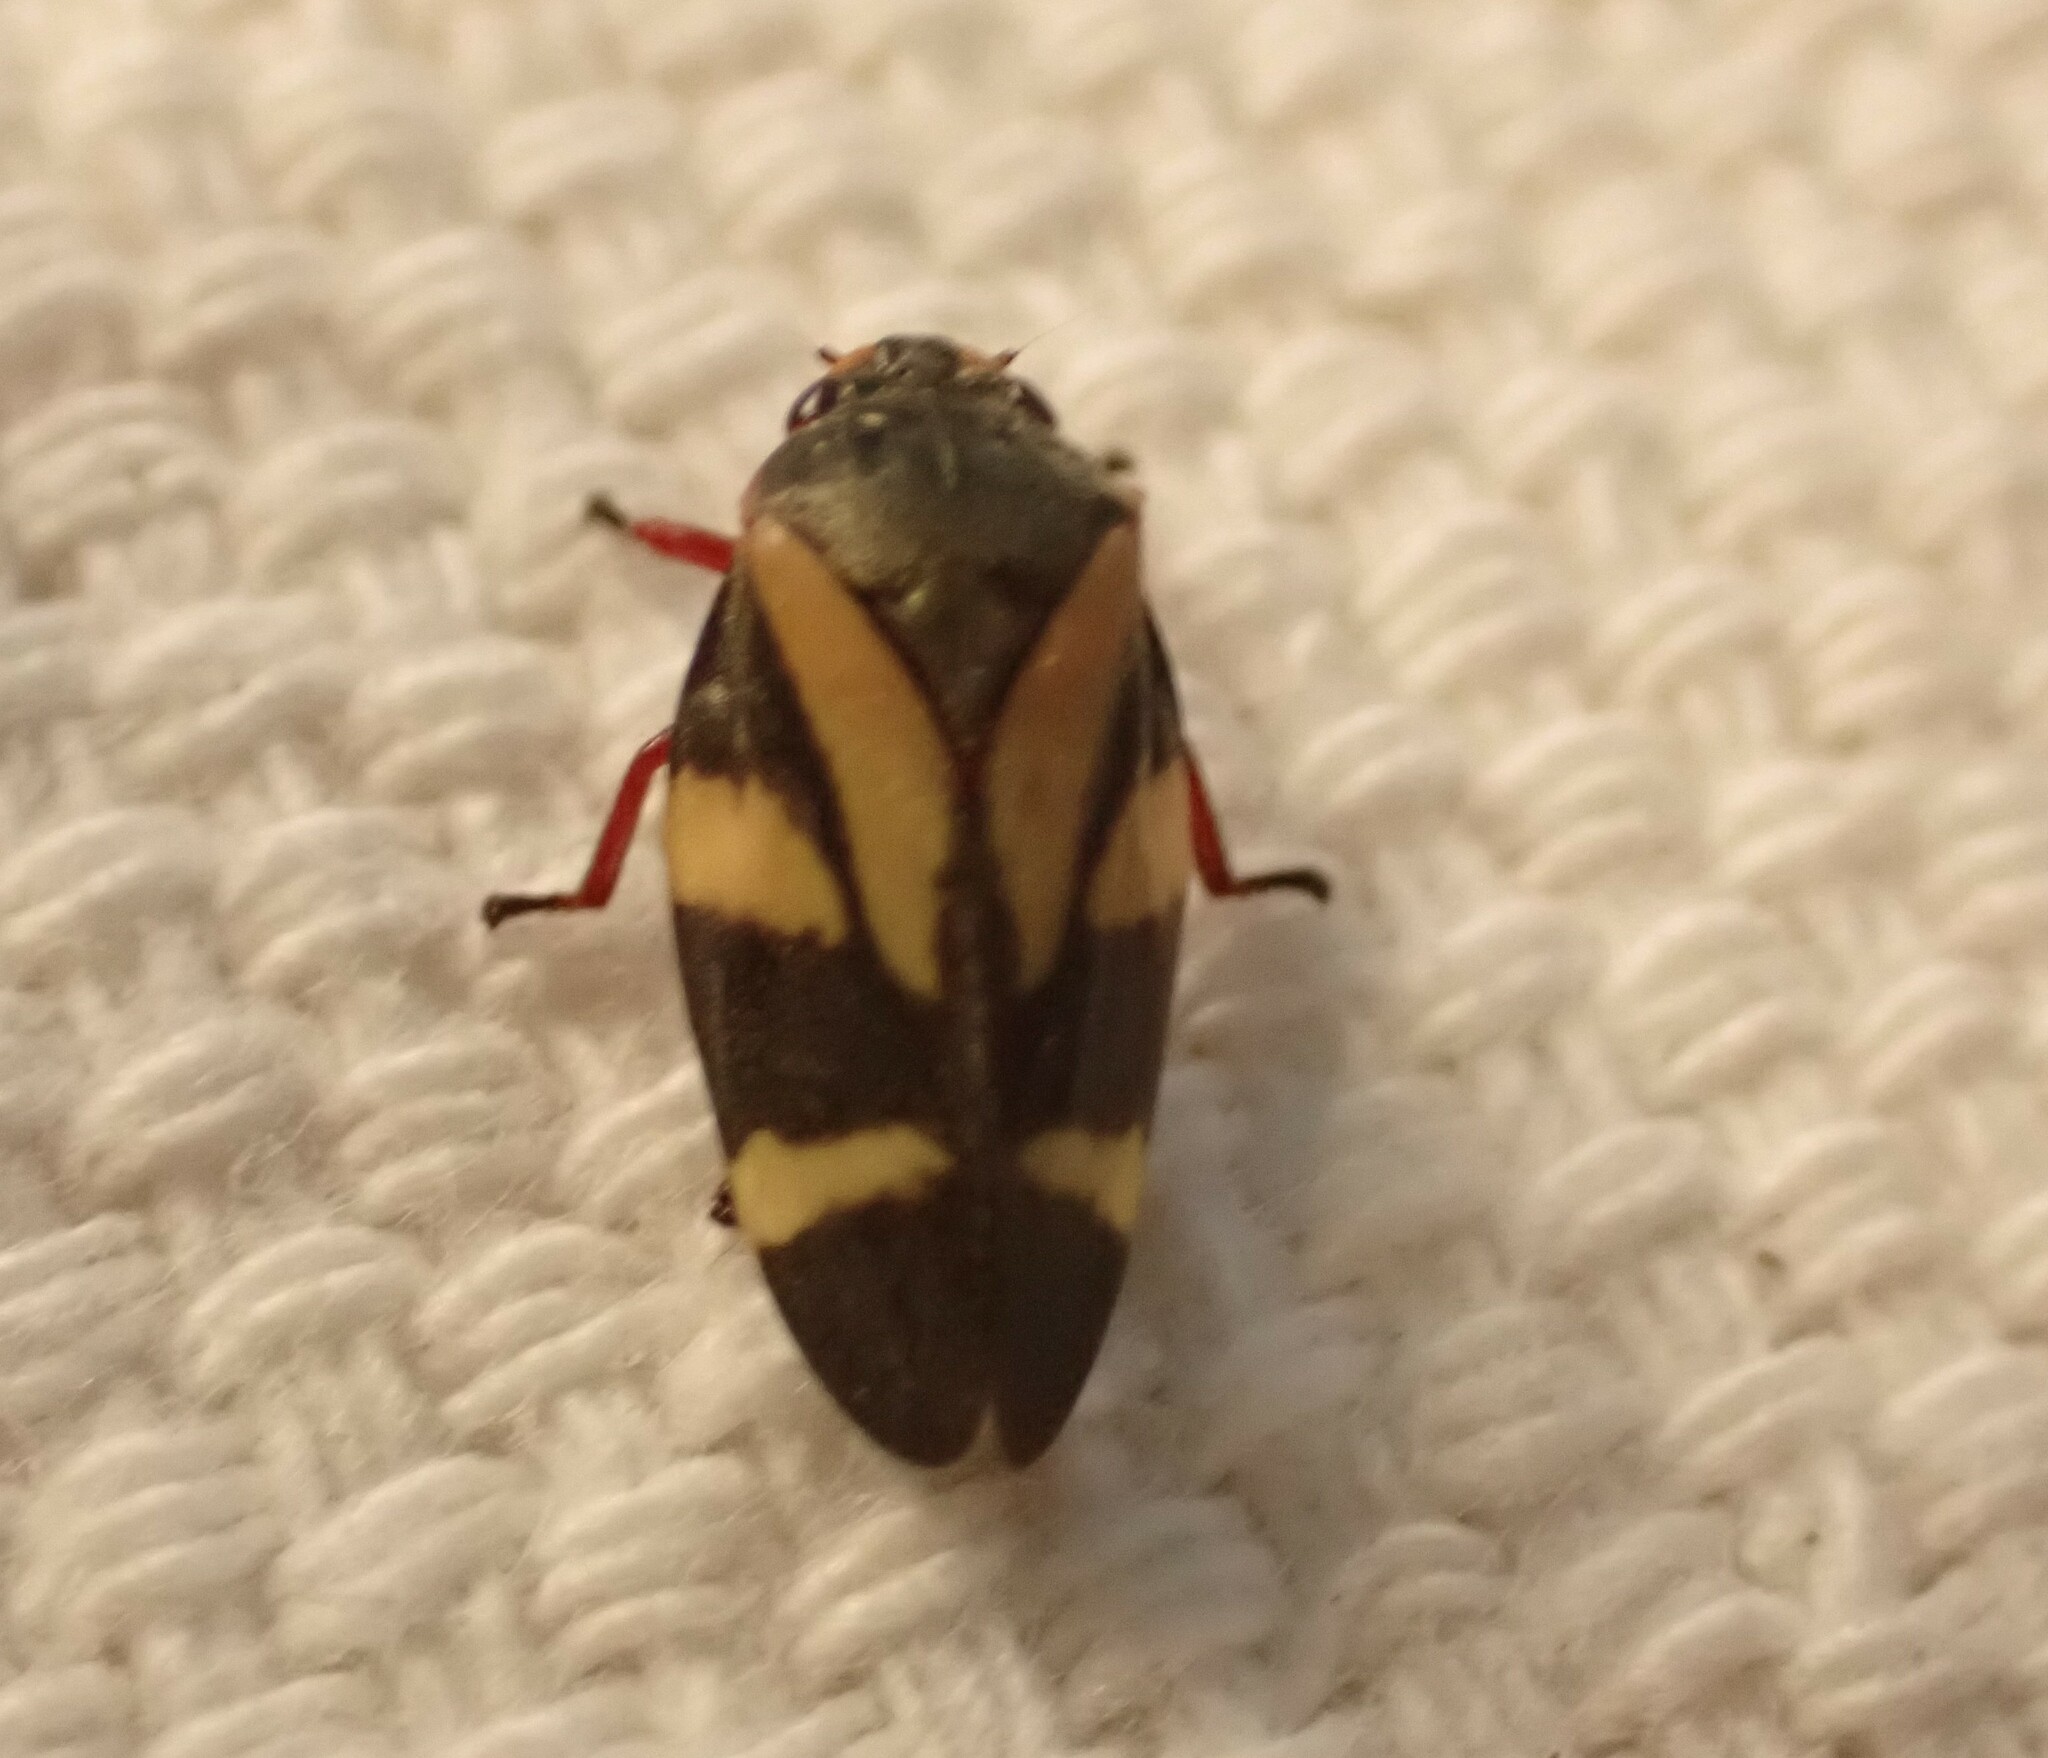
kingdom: Animalia
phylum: Arthropoda
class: Insecta
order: Hemiptera
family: Cercopidae
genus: Deois
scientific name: Deois flavopicta
